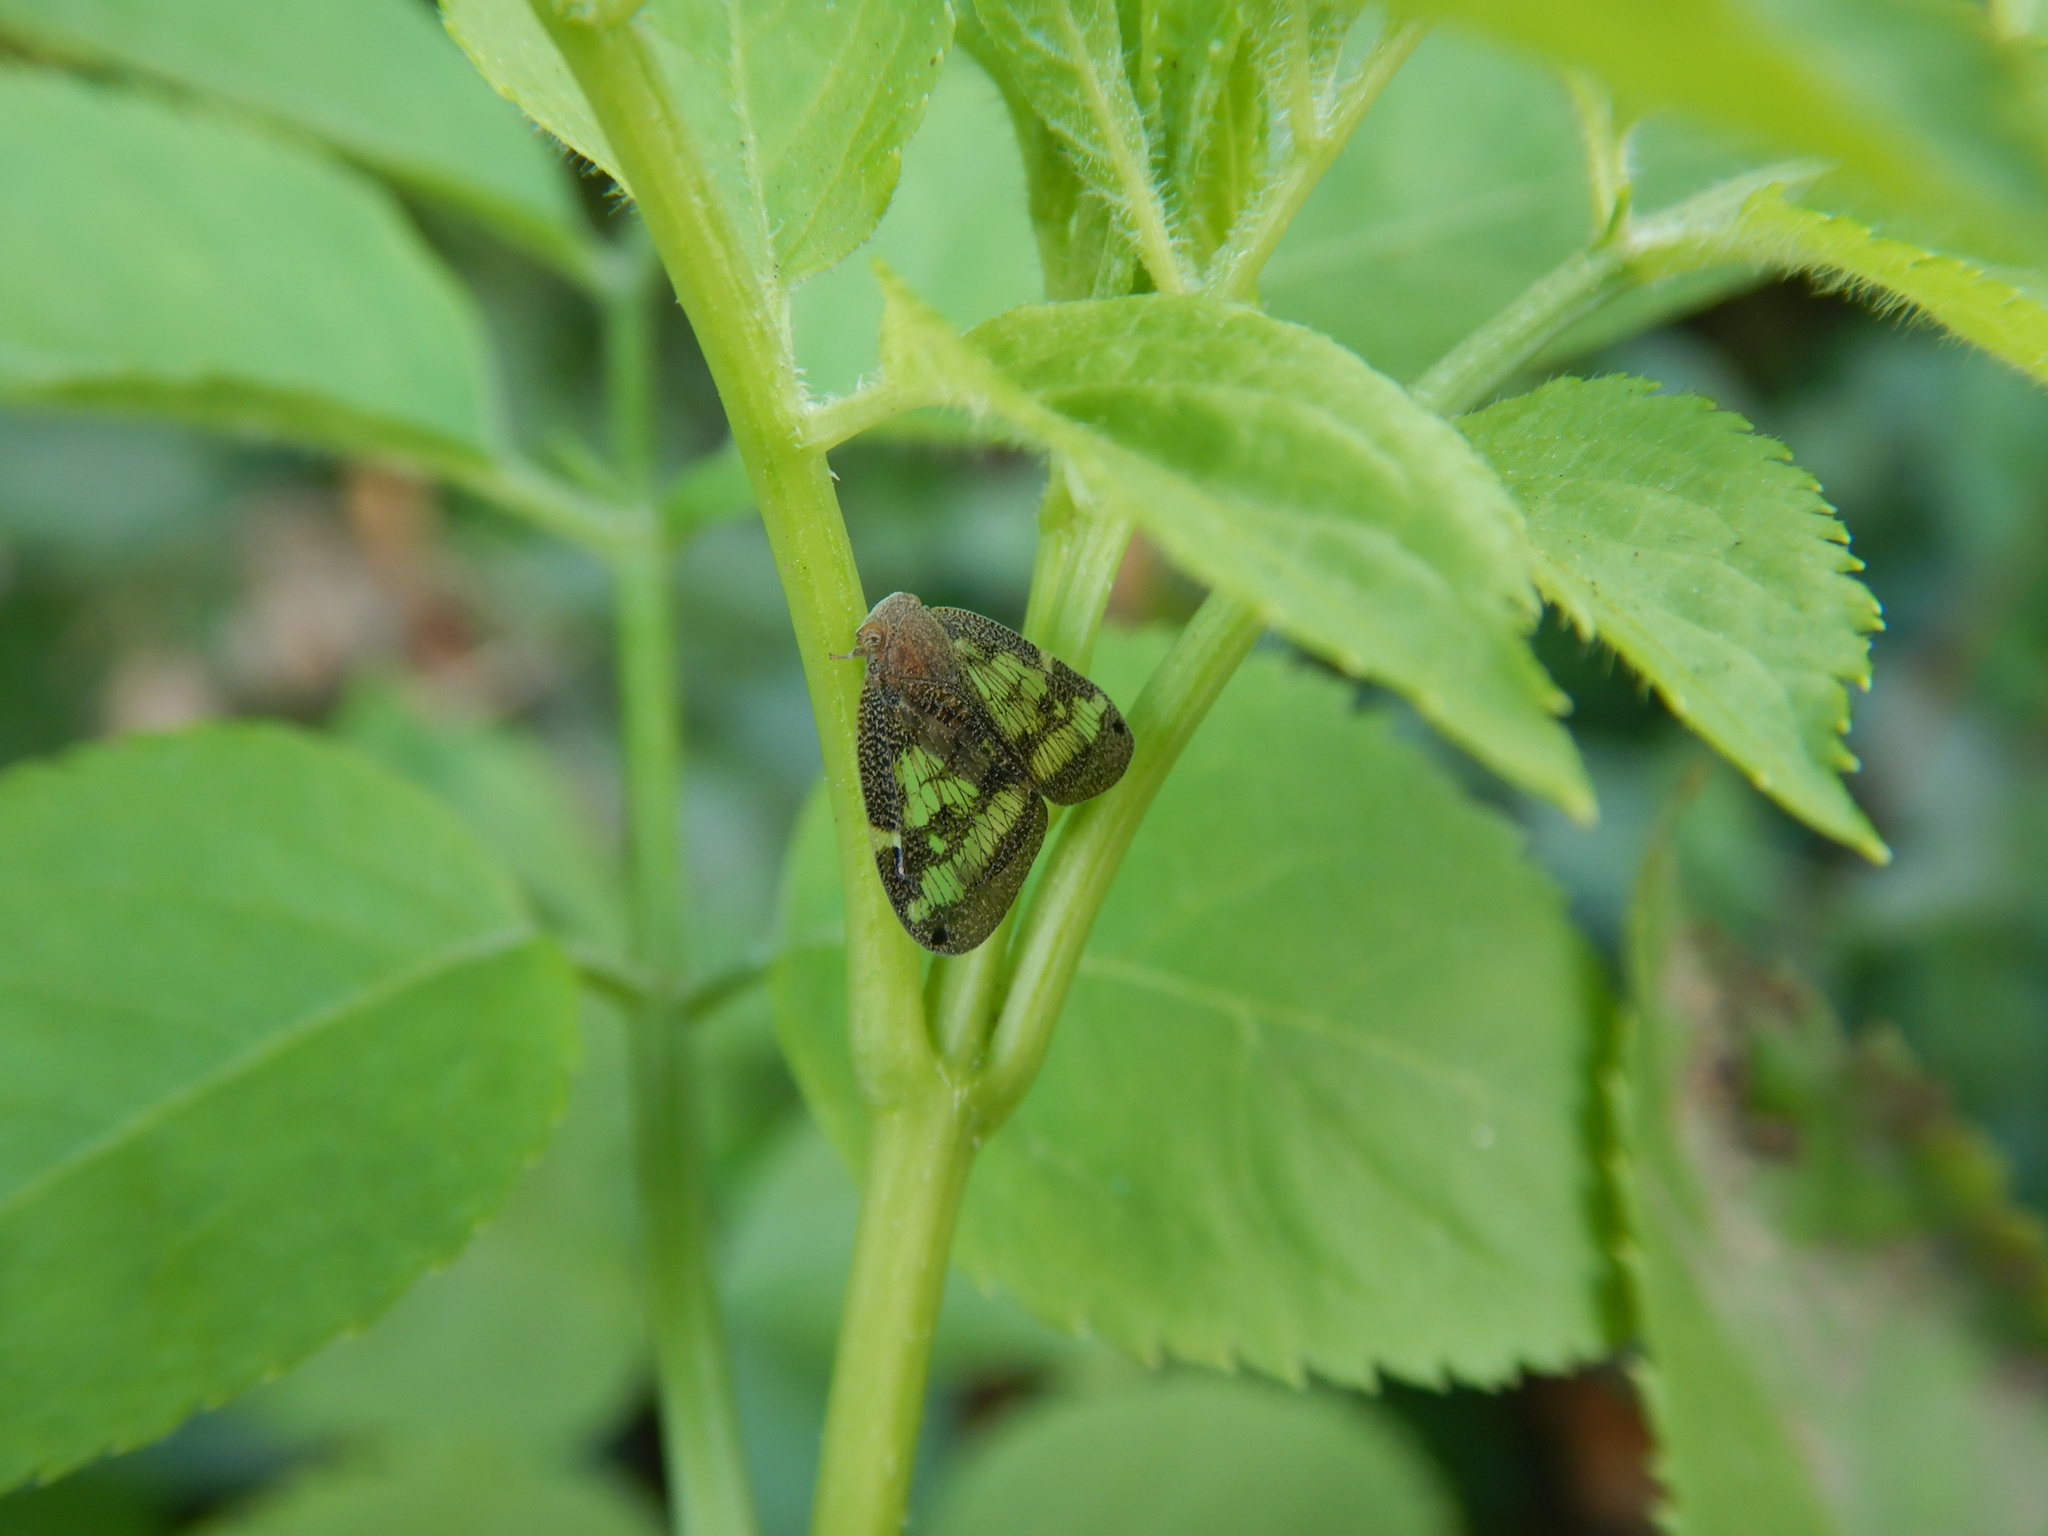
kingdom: Animalia
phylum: Arthropoda
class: Insecta
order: Hemiptera
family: Ricaniidae
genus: Scolypopa
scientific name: Scolypopa australis
